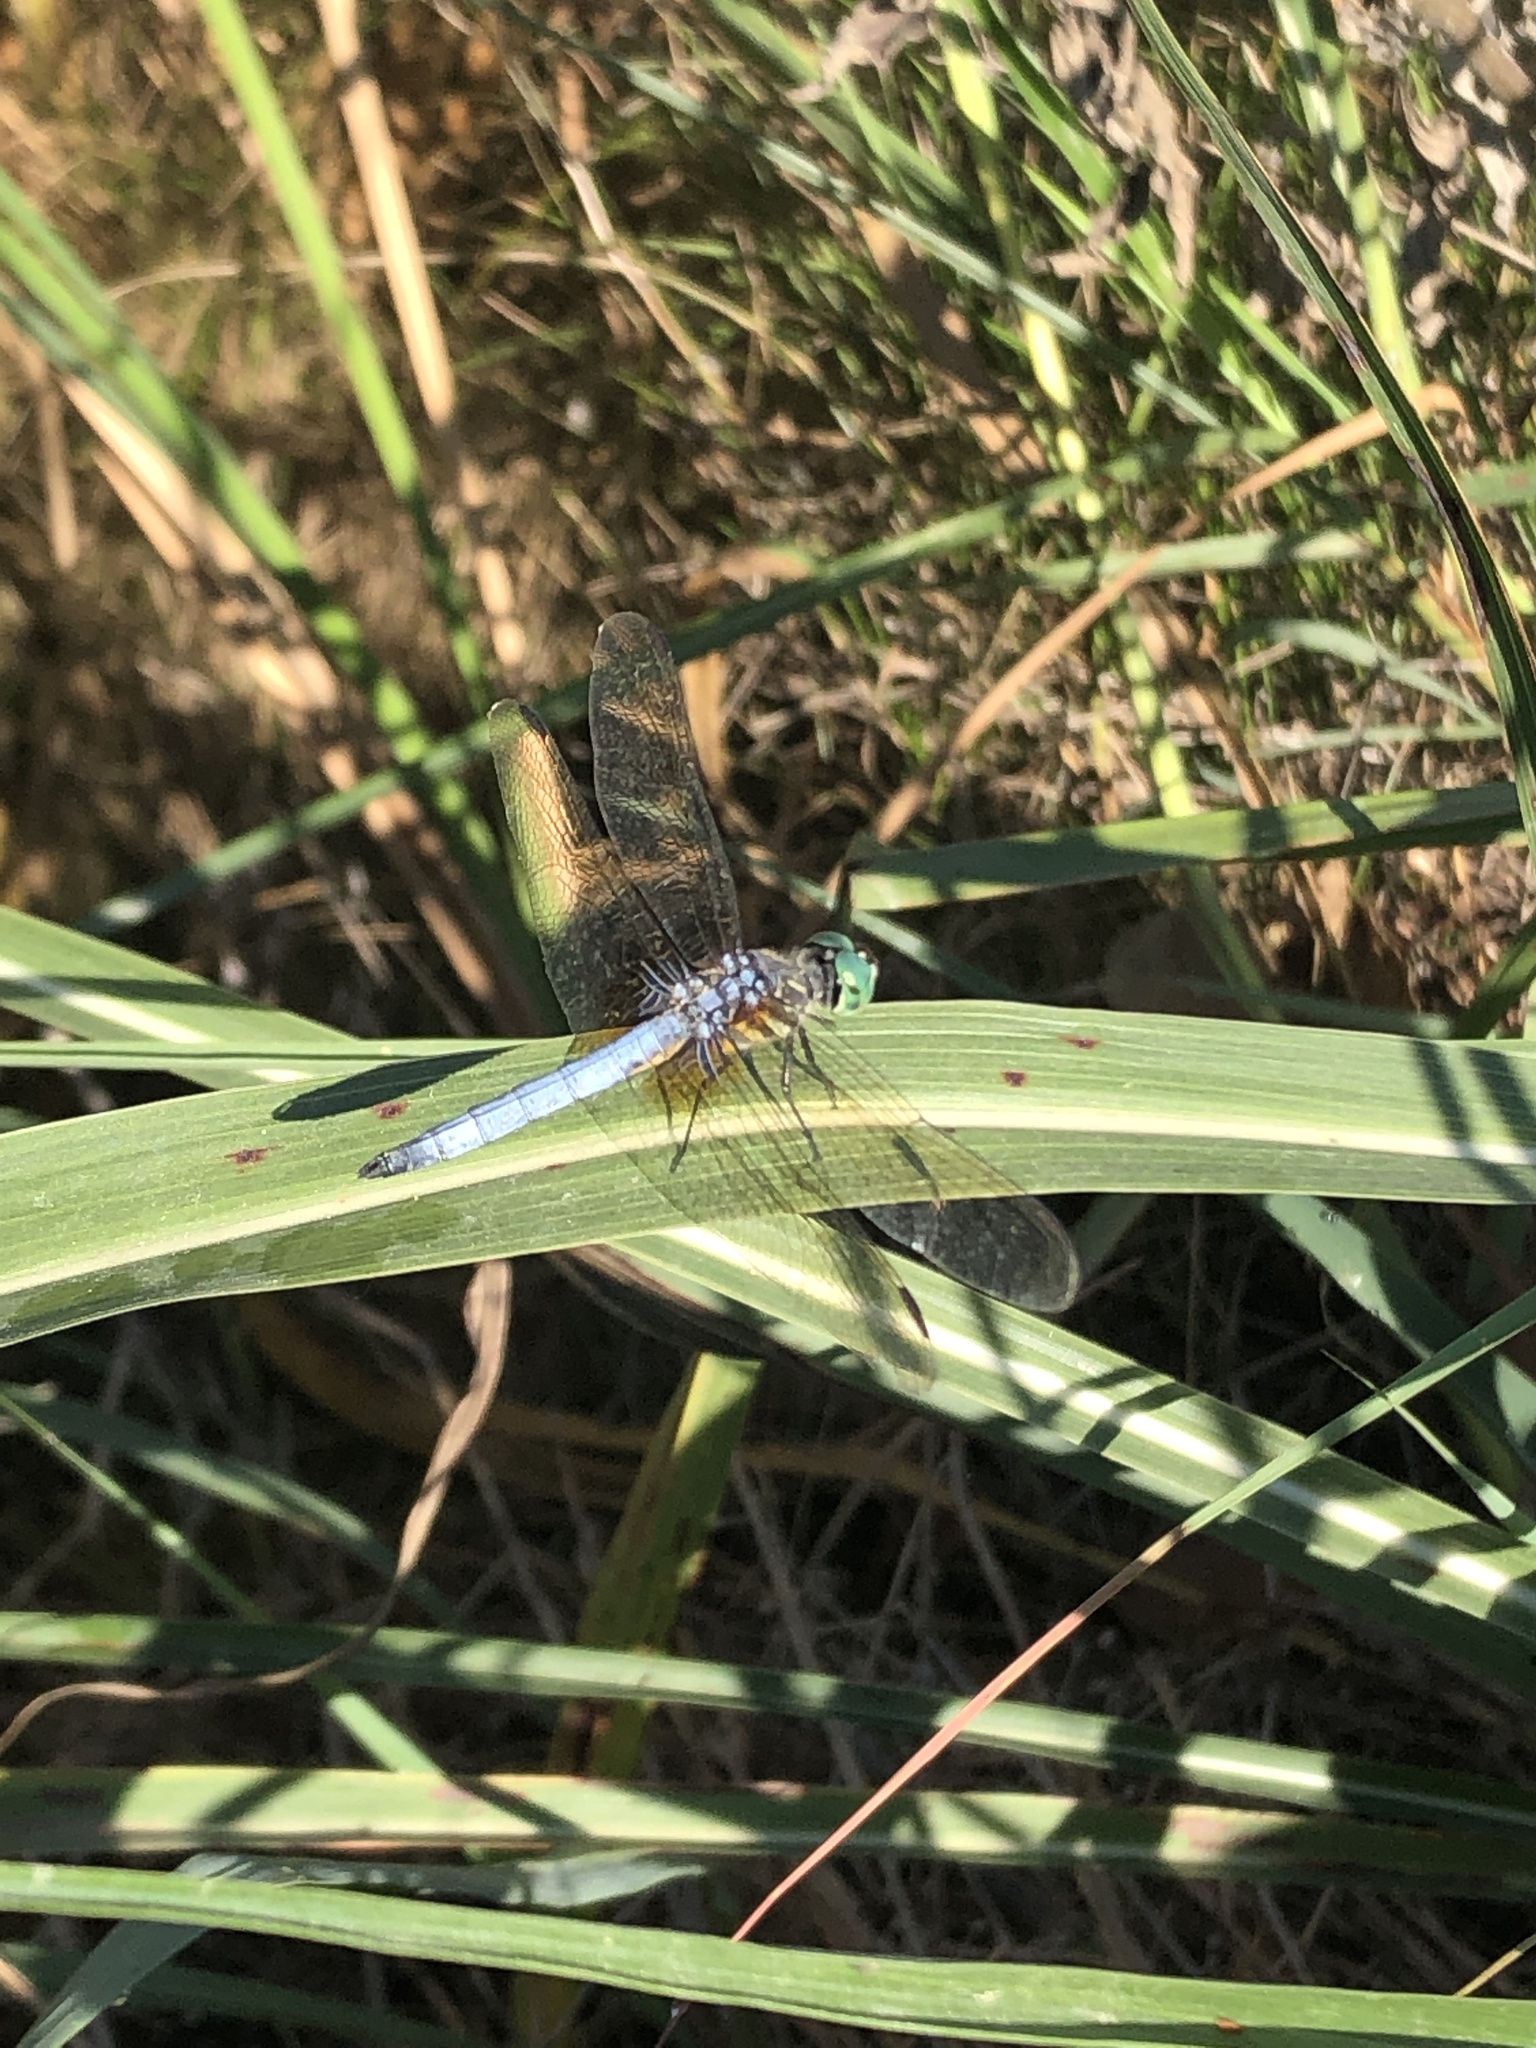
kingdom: Animalia
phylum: Arthropoda
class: Insecta
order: Odonata
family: Libellulidae
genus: Pachydiplax
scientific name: Pachydiplax longipennis
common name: Blue dasher
